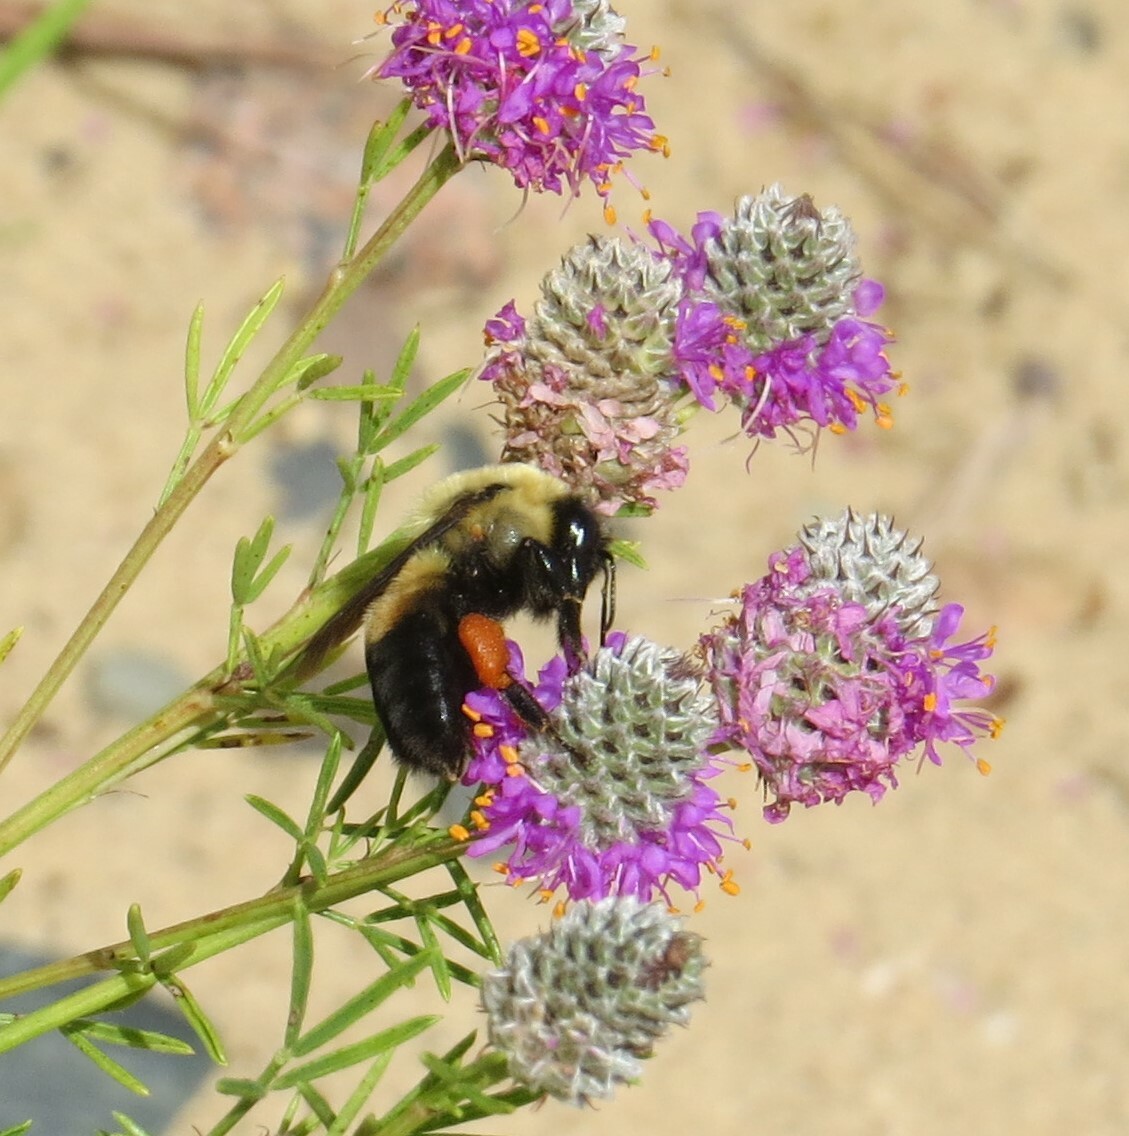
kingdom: Animalia
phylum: Arthropoda
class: Insecta
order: Hymenoptera
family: Apidae
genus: Bombus
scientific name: Bombus griseocollis
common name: Brown-belted bumble bee
